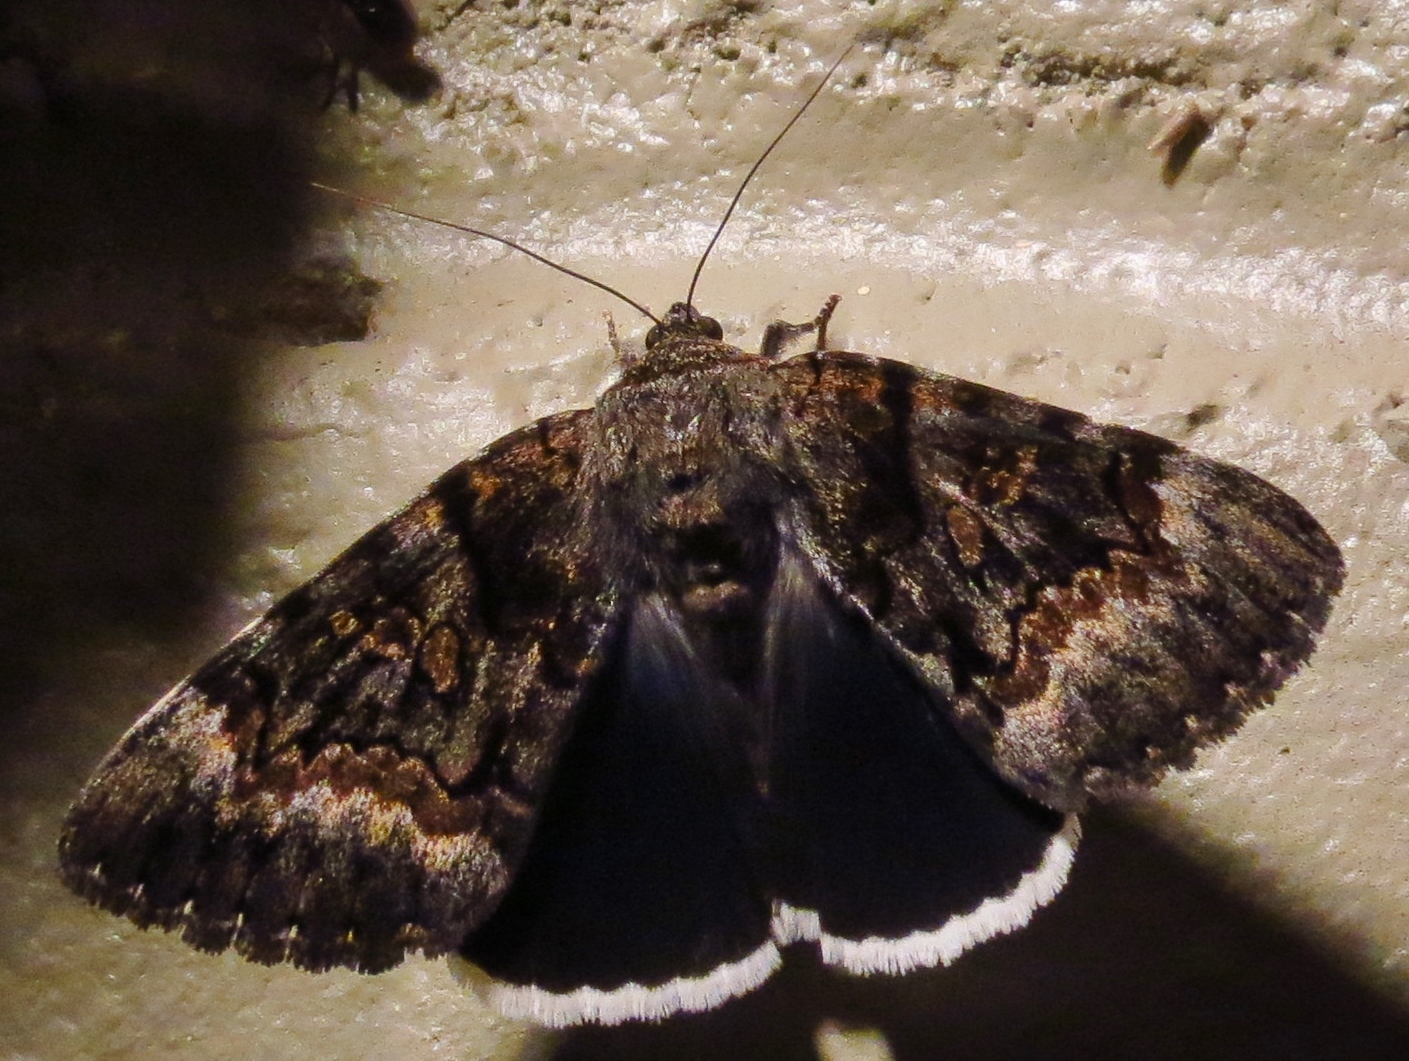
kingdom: Animalia
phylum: Arthropoda
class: Insecta
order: Lepidoptera
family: Erebidae
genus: Catocala
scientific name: Catocala epione
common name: Epione underwing
